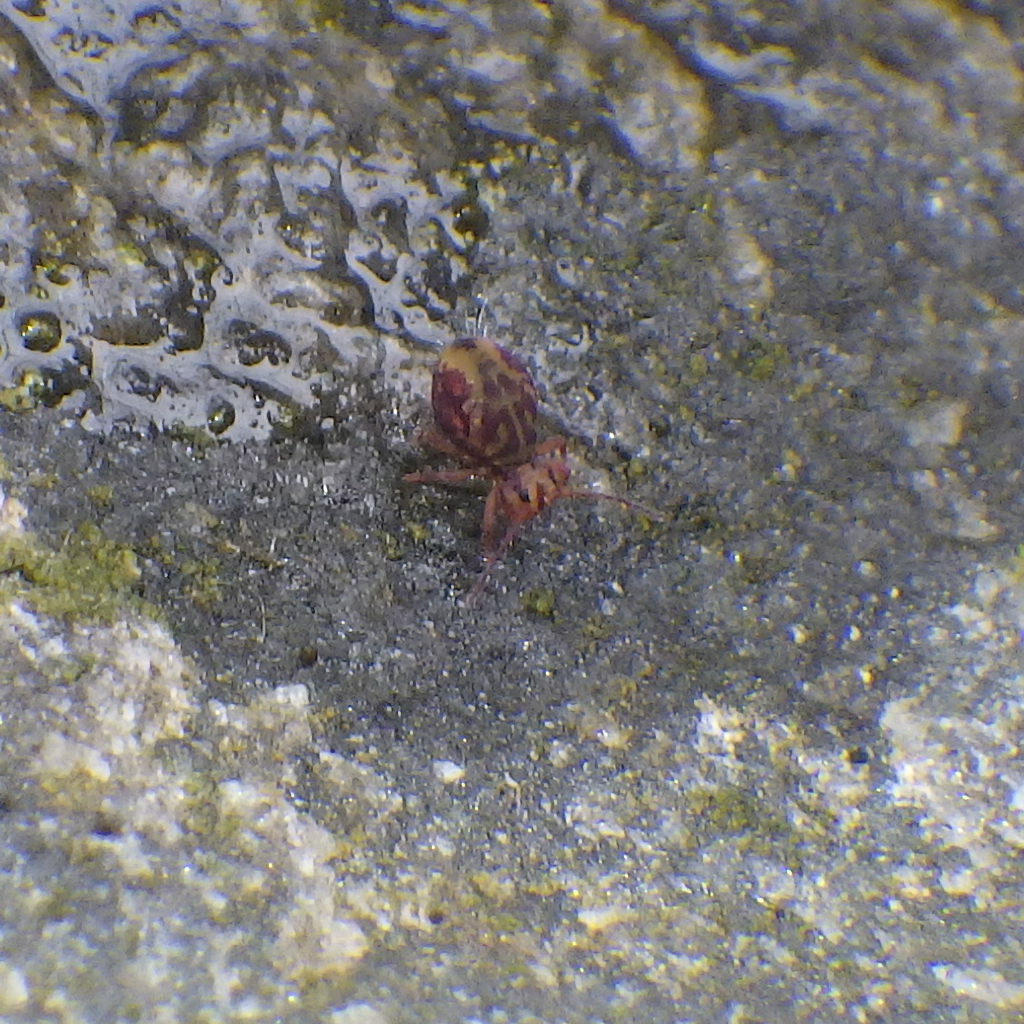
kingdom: Animalia
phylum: Arthropoda
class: Collembola
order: Symphypleona
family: Dicyrtomidae
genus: Dicyrtomina
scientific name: Dicyrtomina minuta
